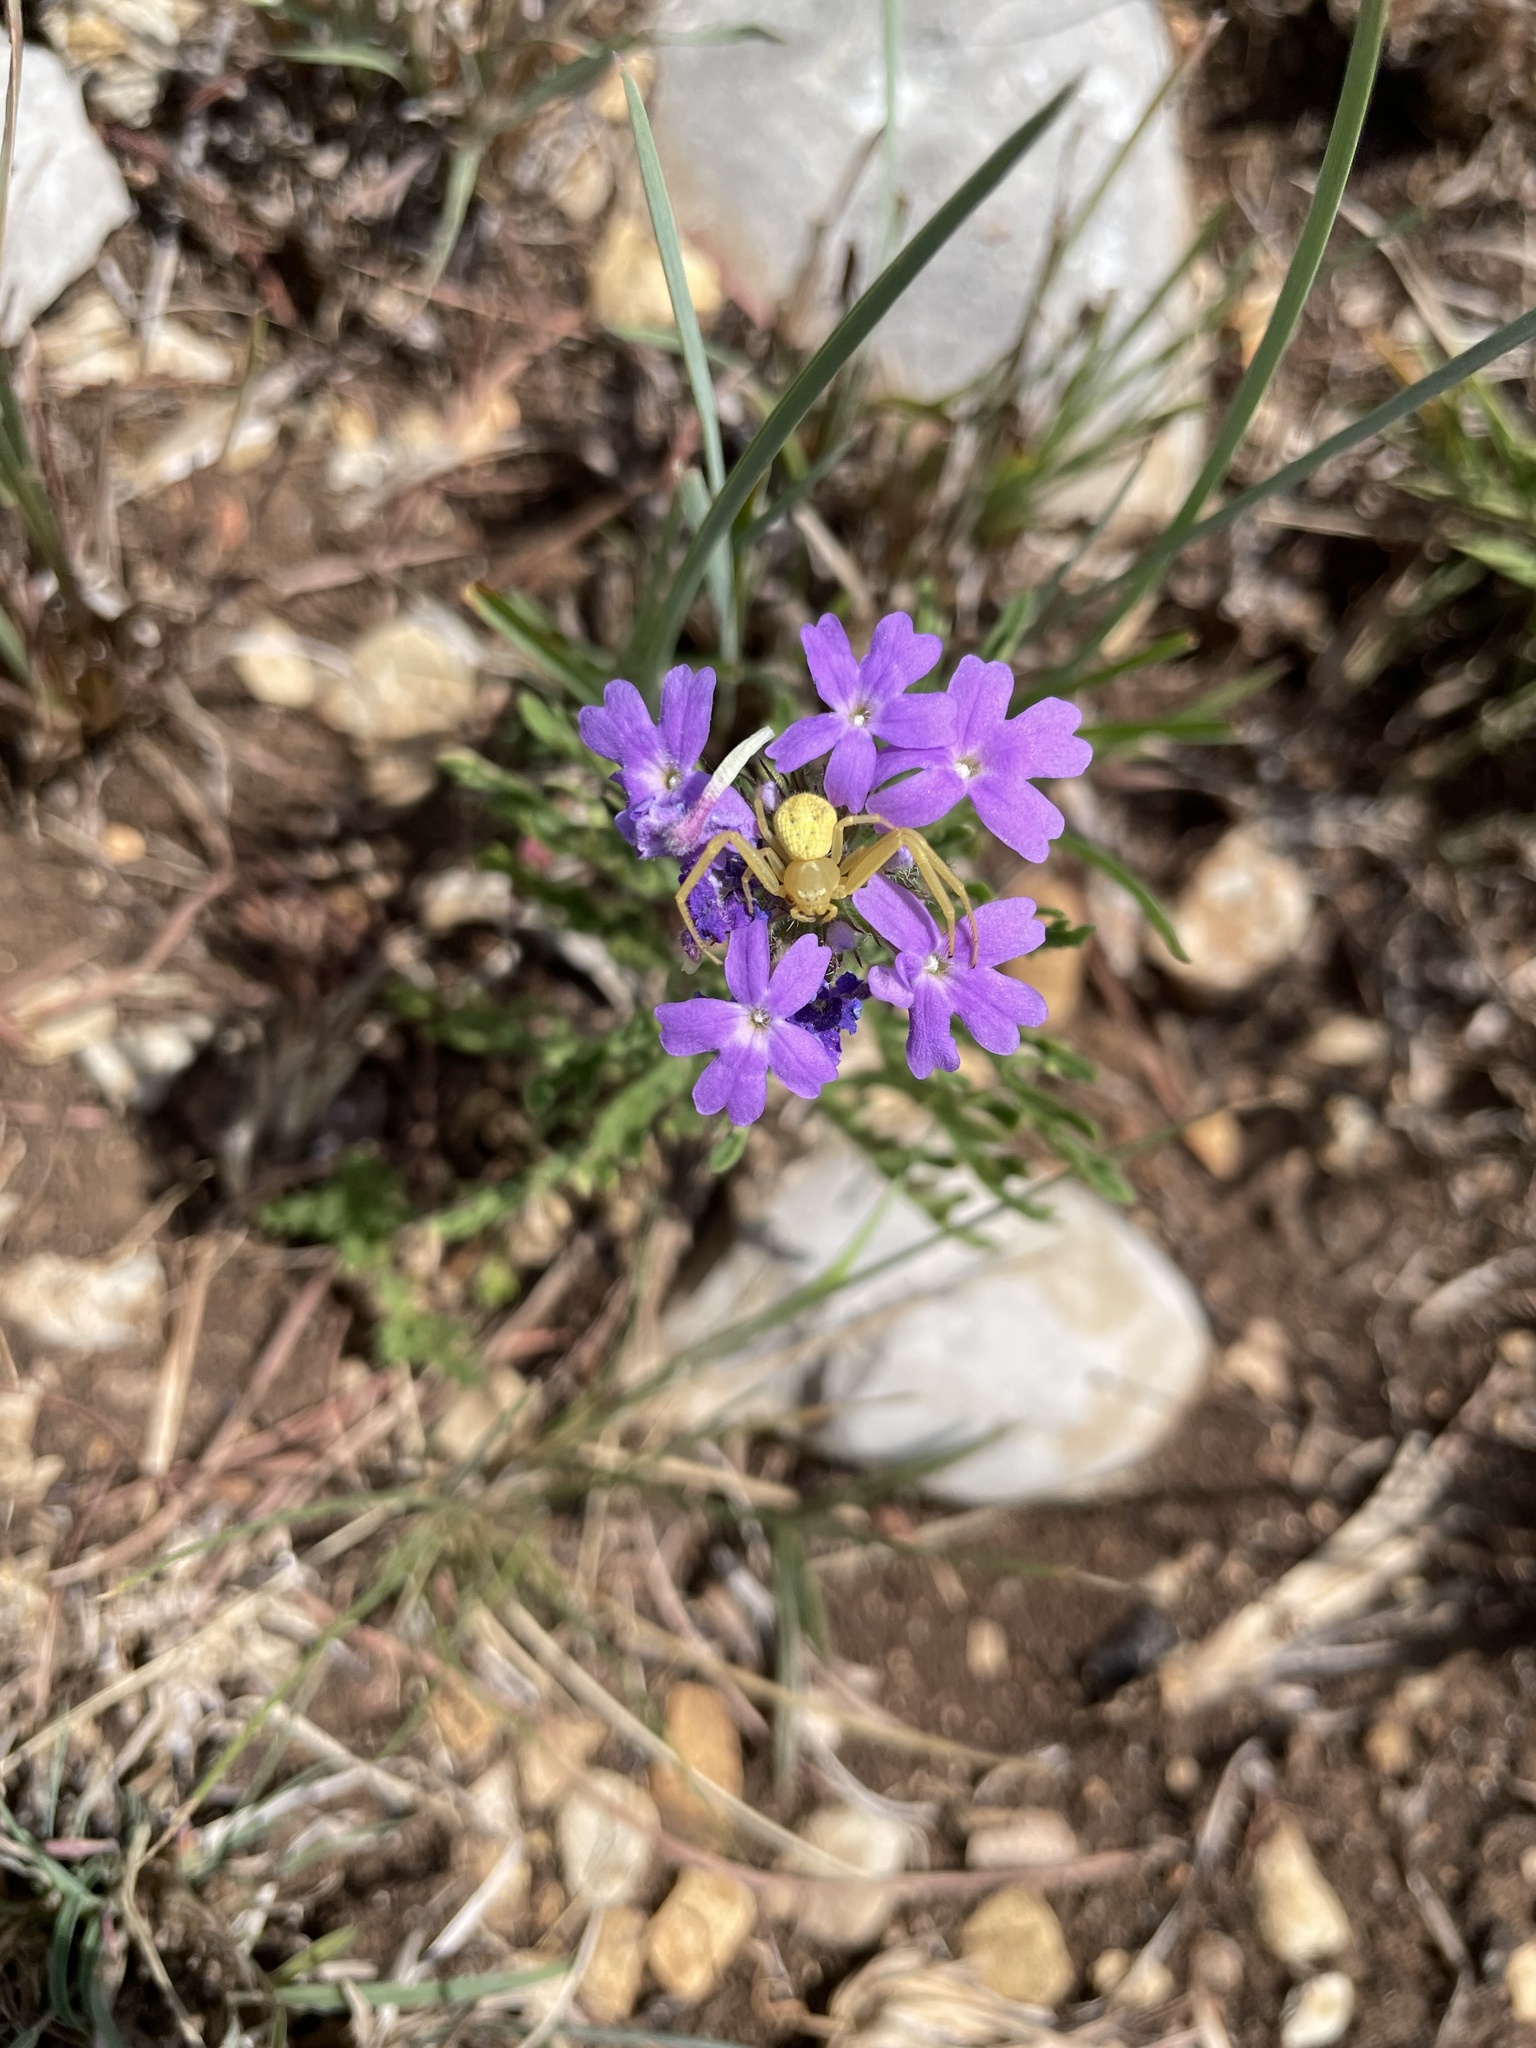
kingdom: Plantae
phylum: Tracheophyta
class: Magnoliopsida
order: Lamiales
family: Verbenaceae
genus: Verbena
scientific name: Verbena bipinnatifida
